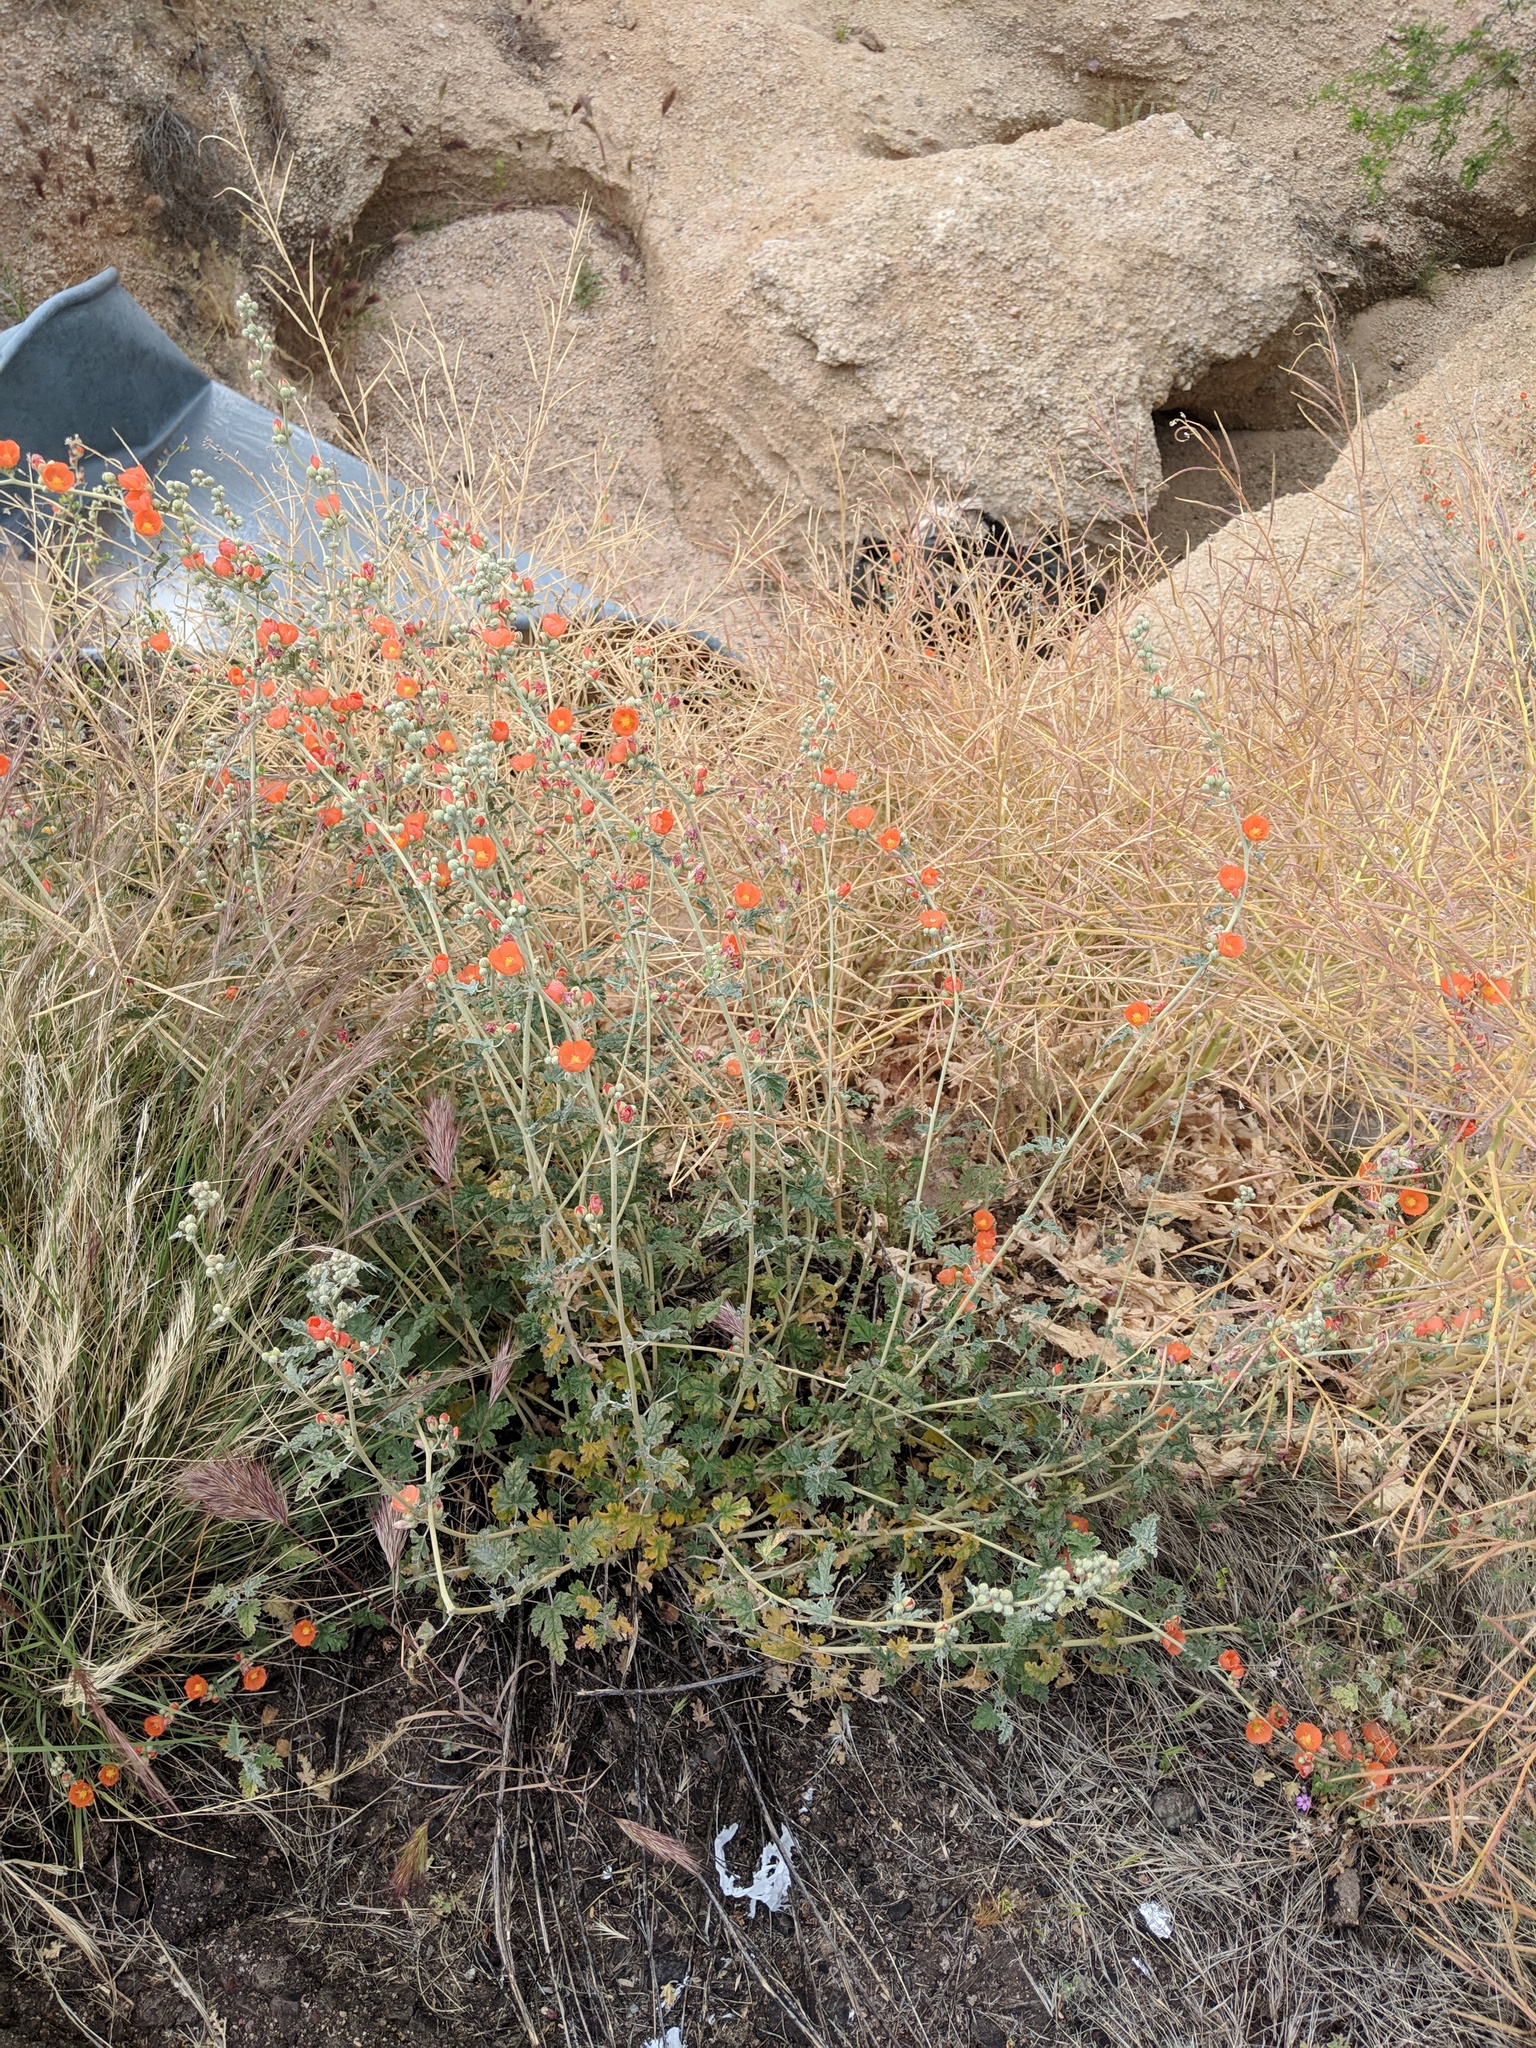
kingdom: Plantae
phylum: Tracheophyta
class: Magnoliopsida
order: Malvales
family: Malvaceae
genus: Sphaeralcea
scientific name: Sphaeralcea ambigua
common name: Apricot globe-mallow
